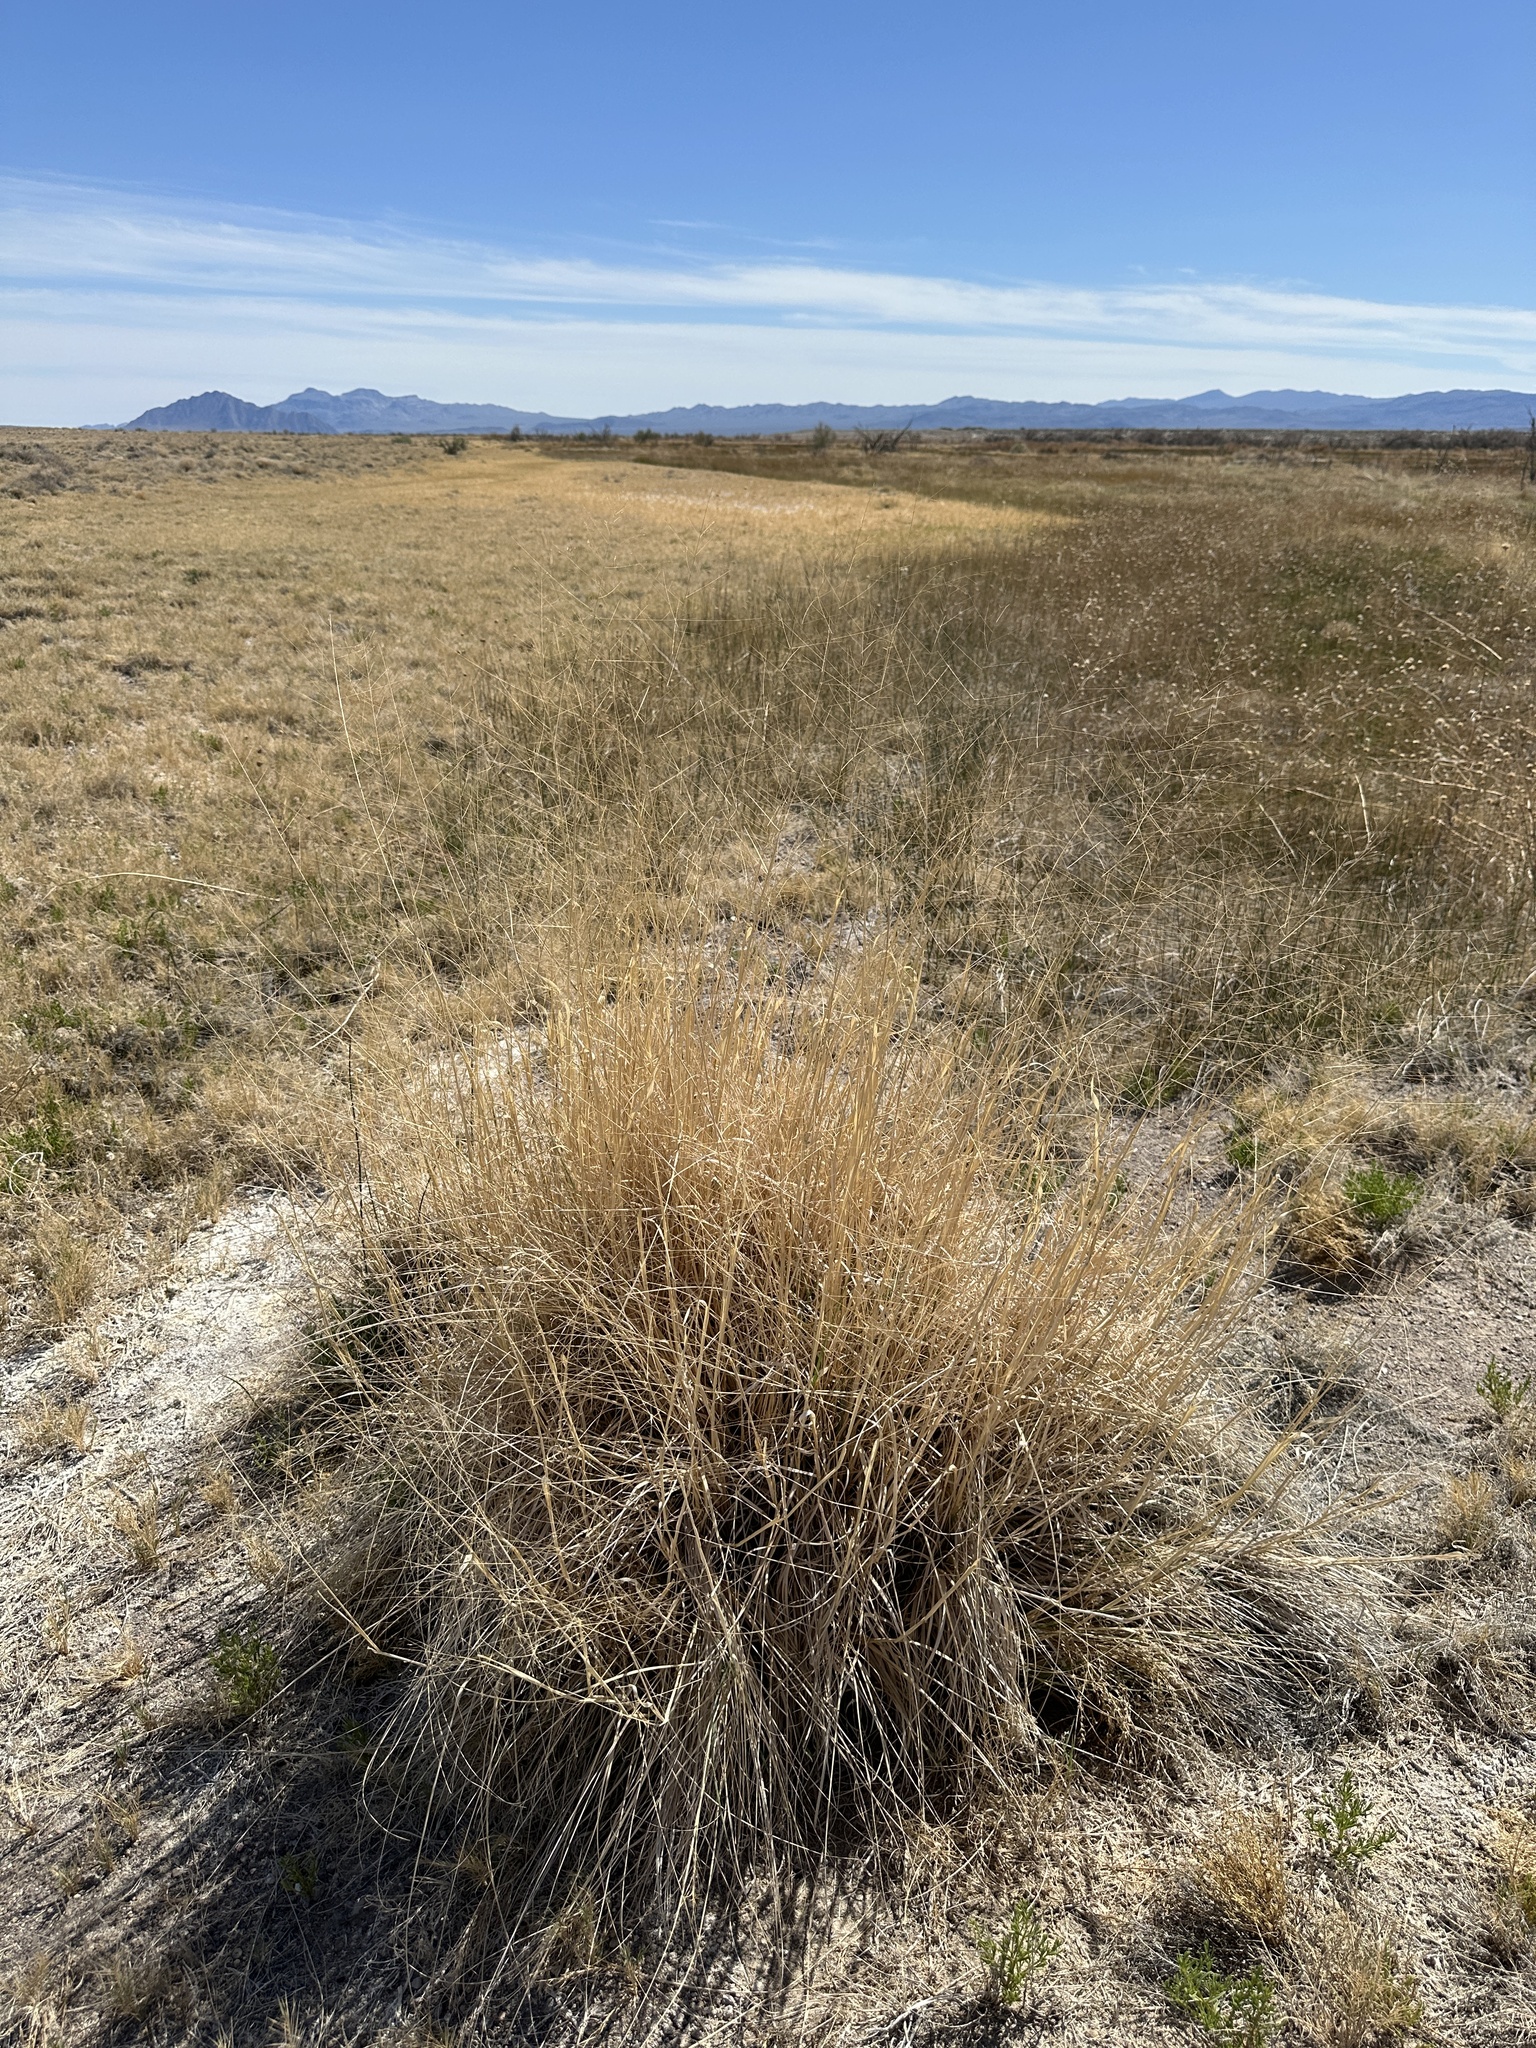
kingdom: Plantae
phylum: Tracheophyta
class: Liliopsida
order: Poales
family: Poaceae
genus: Sporobolus
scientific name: Sporobolus airoides
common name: Alkali sacaton
